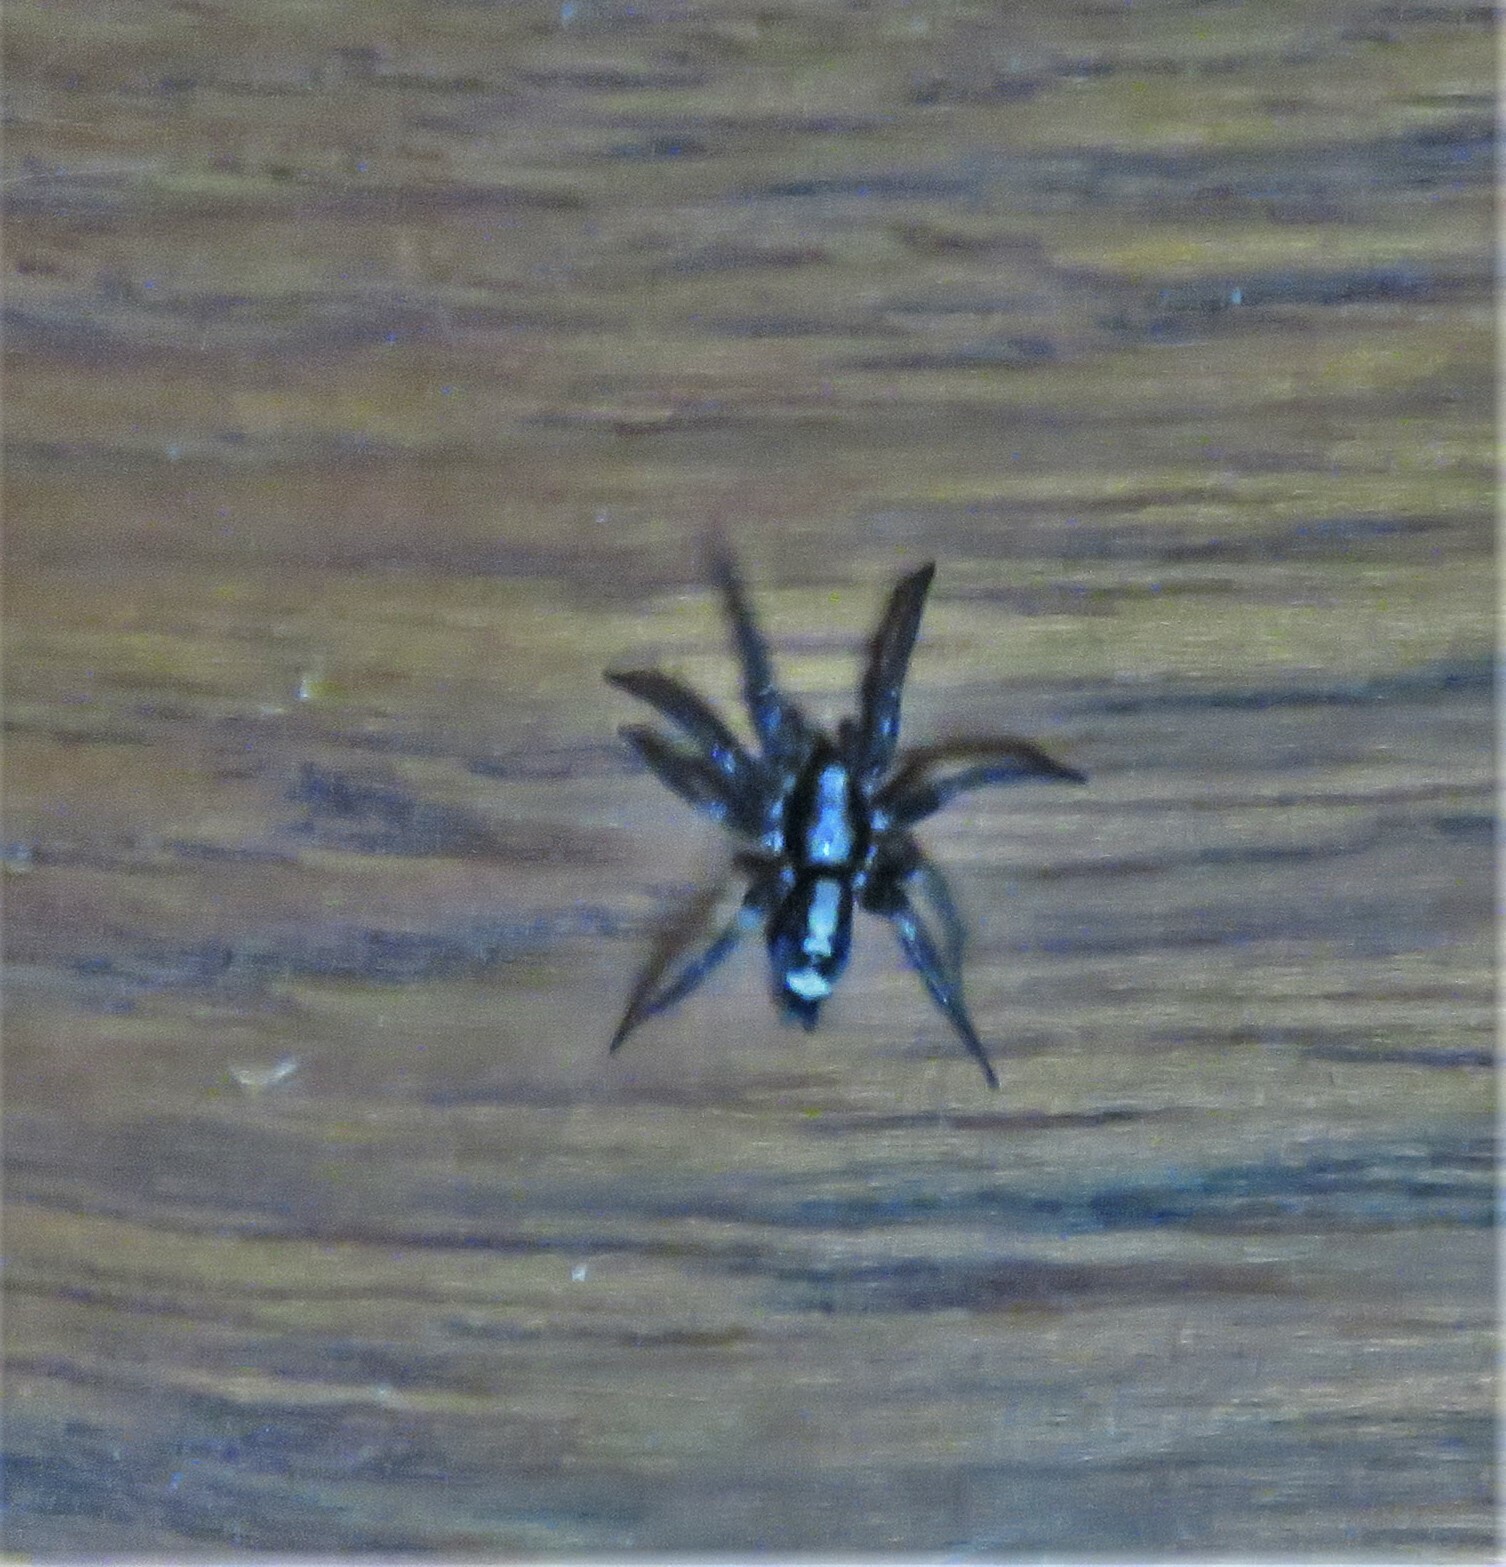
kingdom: Animalia
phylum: Arthropoda
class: Arachnida
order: Araneae
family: Gnaphosidae
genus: Herpyllus
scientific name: Herpyllus ecclesiasticus
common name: Eastern parson spider
